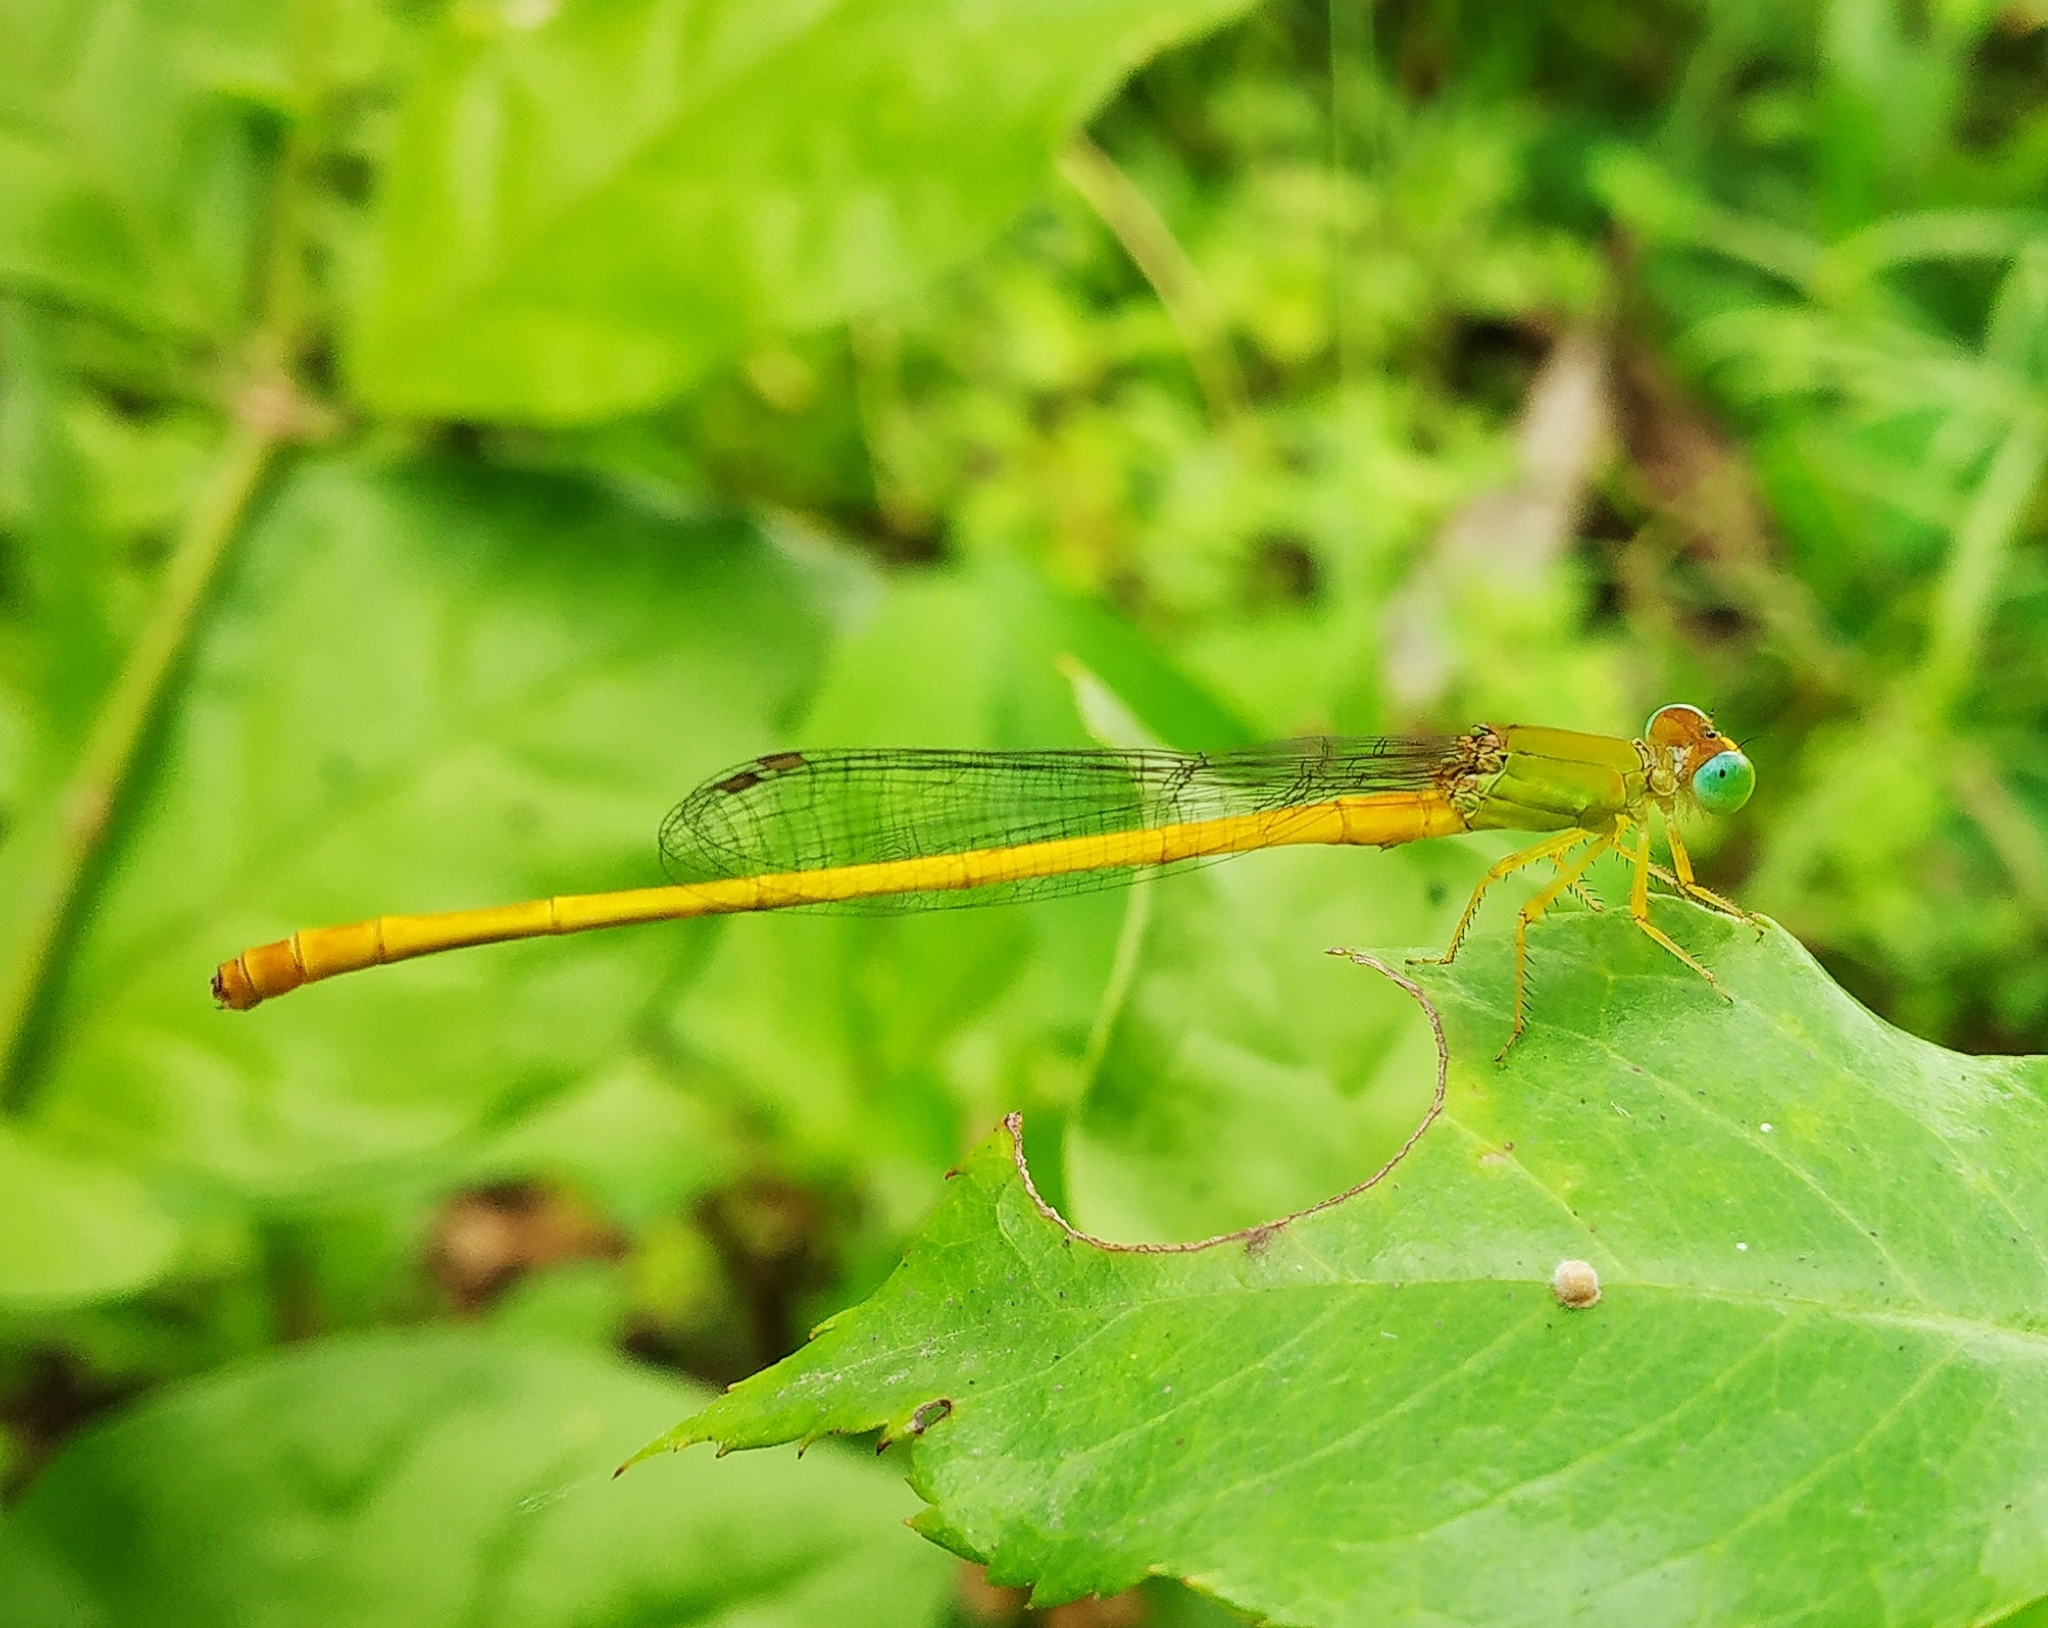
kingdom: Animalia
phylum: Arthropoda
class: Insecta
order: Odonata
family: Coenagrionidae
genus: Ceriagrion
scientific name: Ceriagrion coromandelianum
